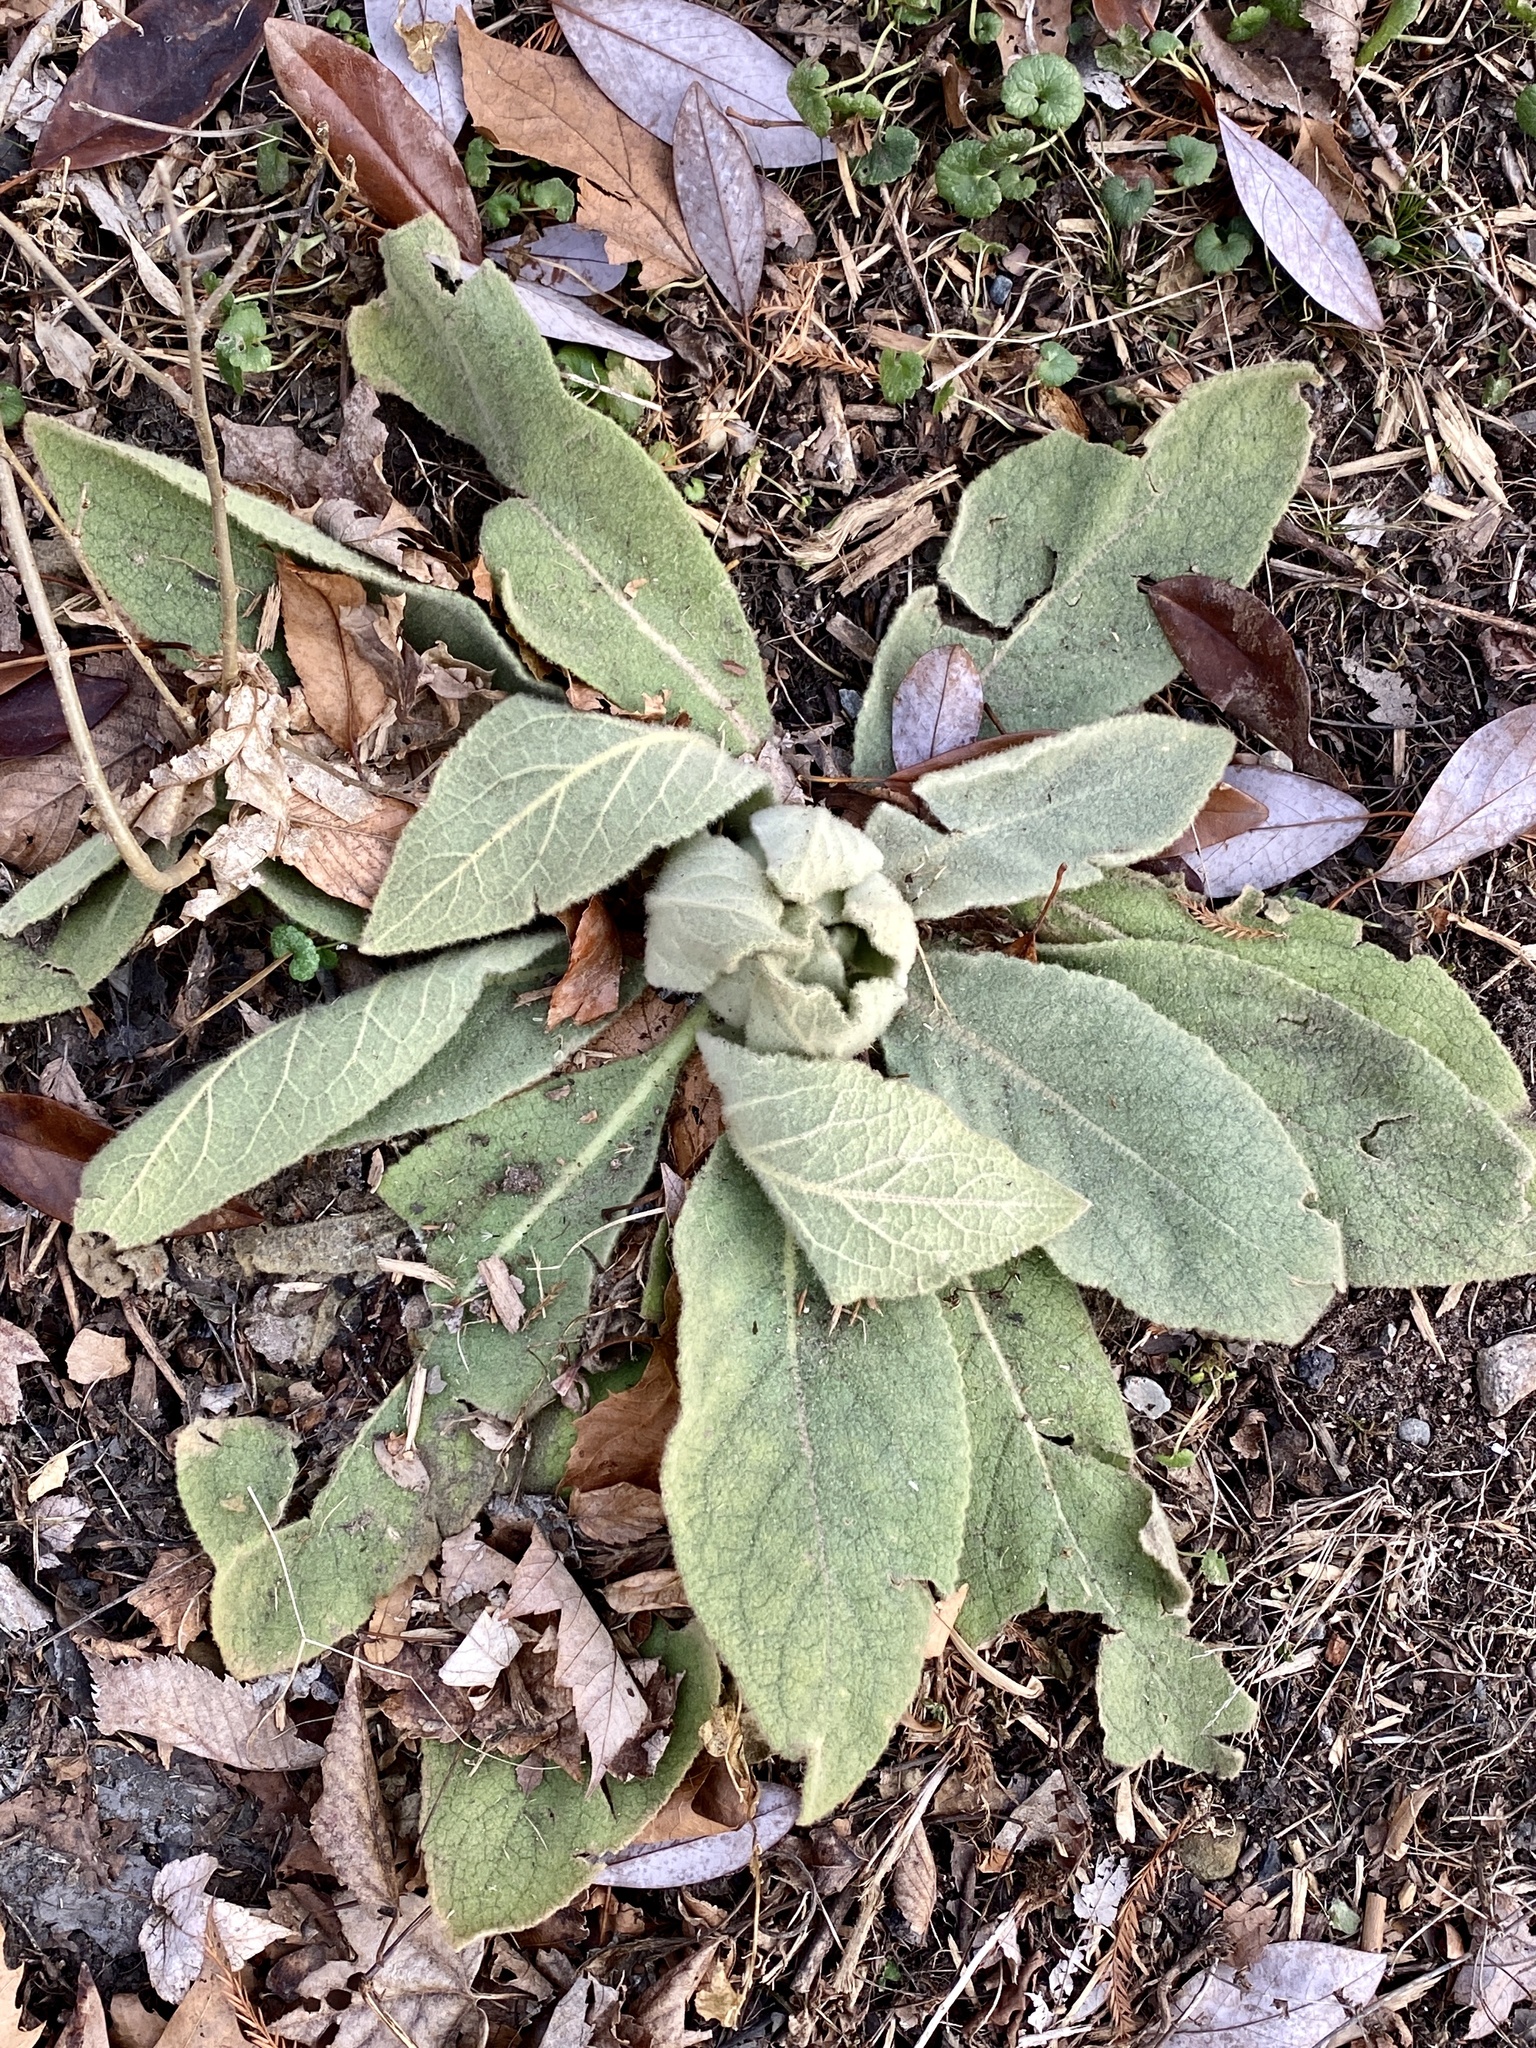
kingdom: Plantae
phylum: Tracheophyta
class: Magnoliopsida
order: Lamiales
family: Scrophulariaceae
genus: Verbascum
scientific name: Verbascum thapsus
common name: Common mullein
